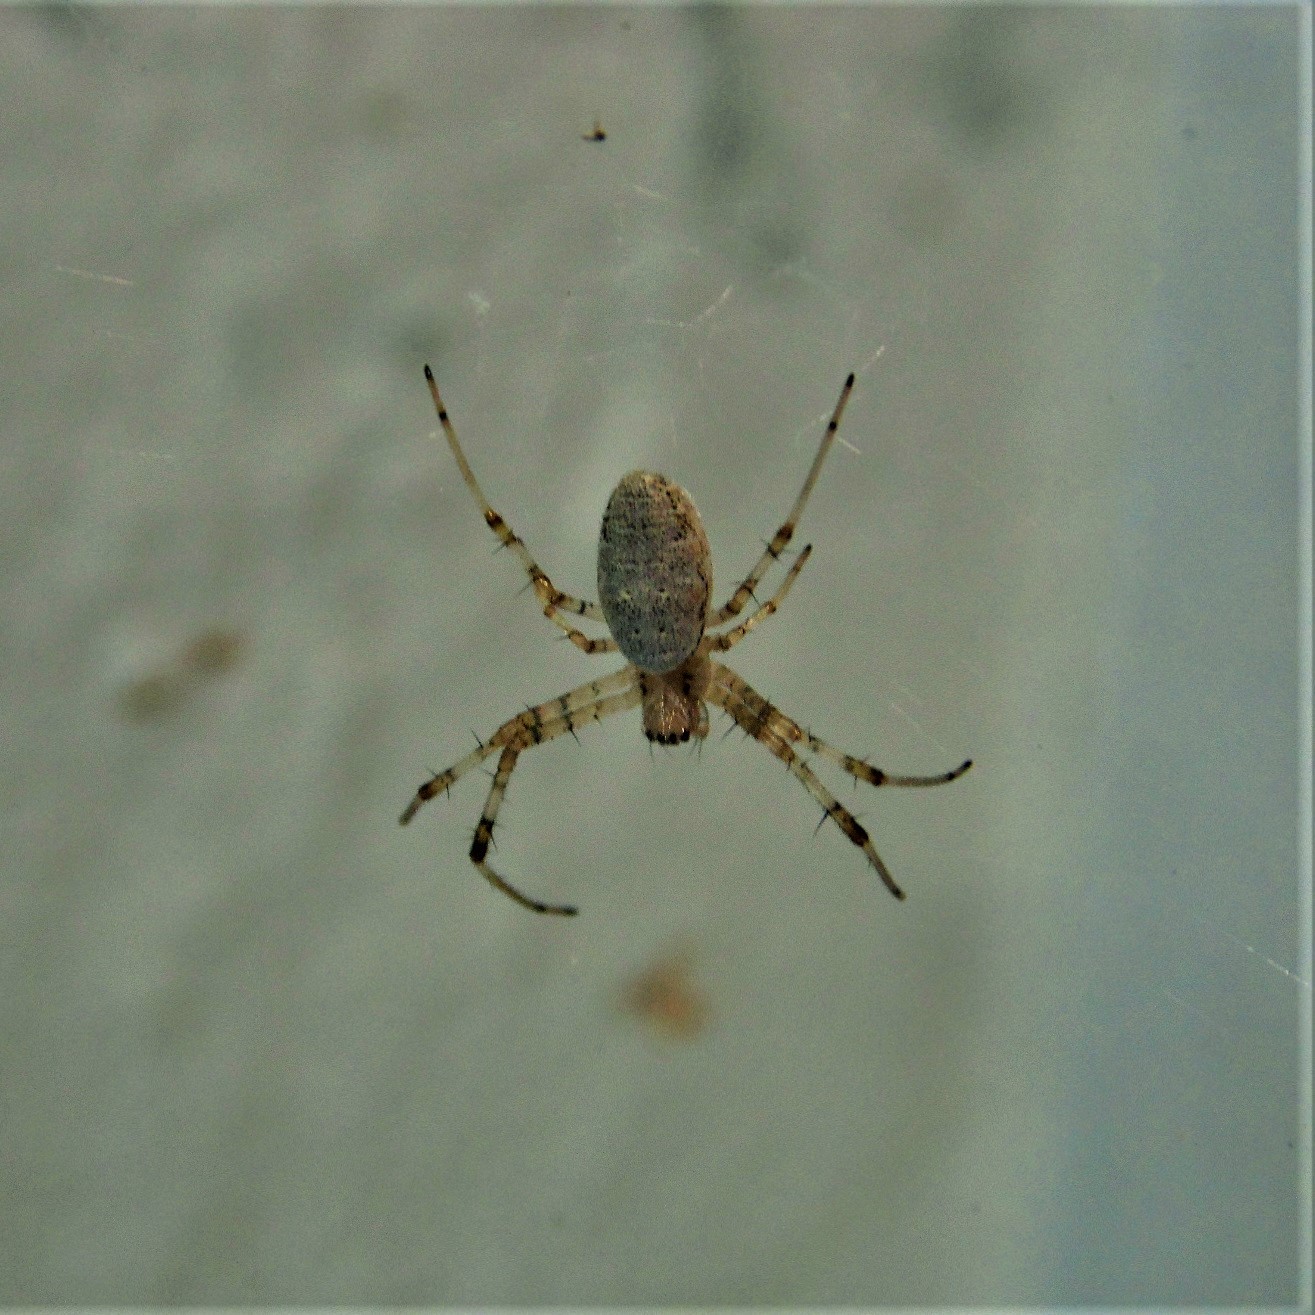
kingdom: Animalia
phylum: Arthropoda
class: Arachnida
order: Araneae
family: Araneidae
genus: Nephilingis
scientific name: Nephilingis cruentata
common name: African hermit spider
